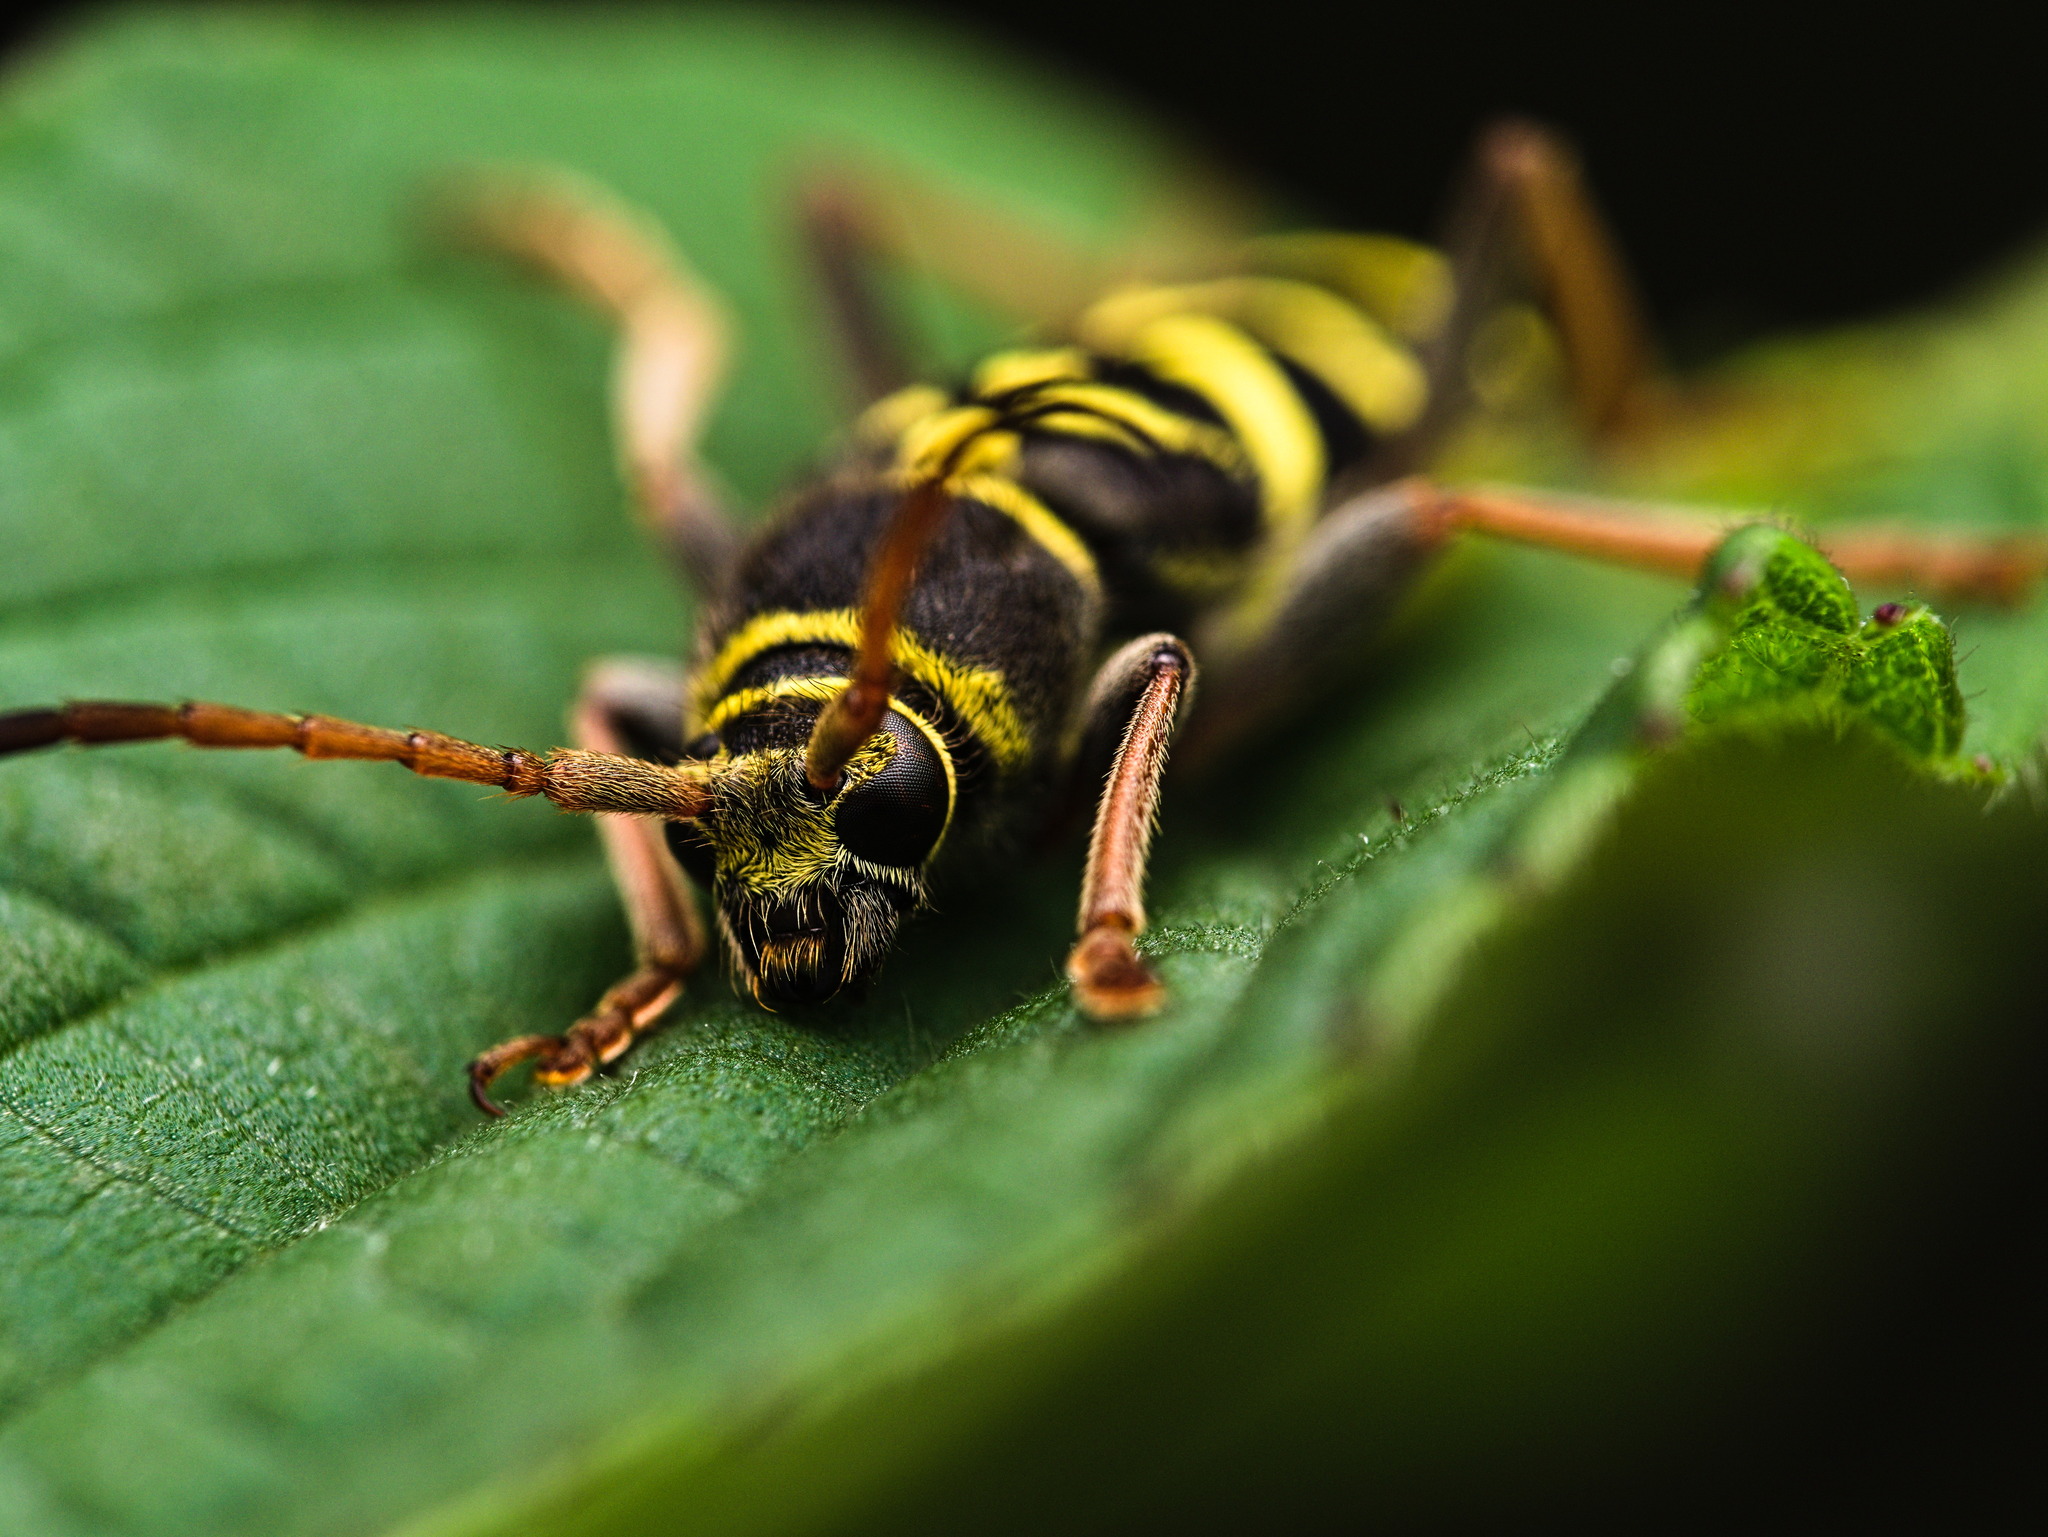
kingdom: Animalia
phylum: Arthropoda
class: Insecta
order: Coleoptera
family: Cerambycidae
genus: Ochraethes
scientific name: Ochraethes dimidiaticornis
